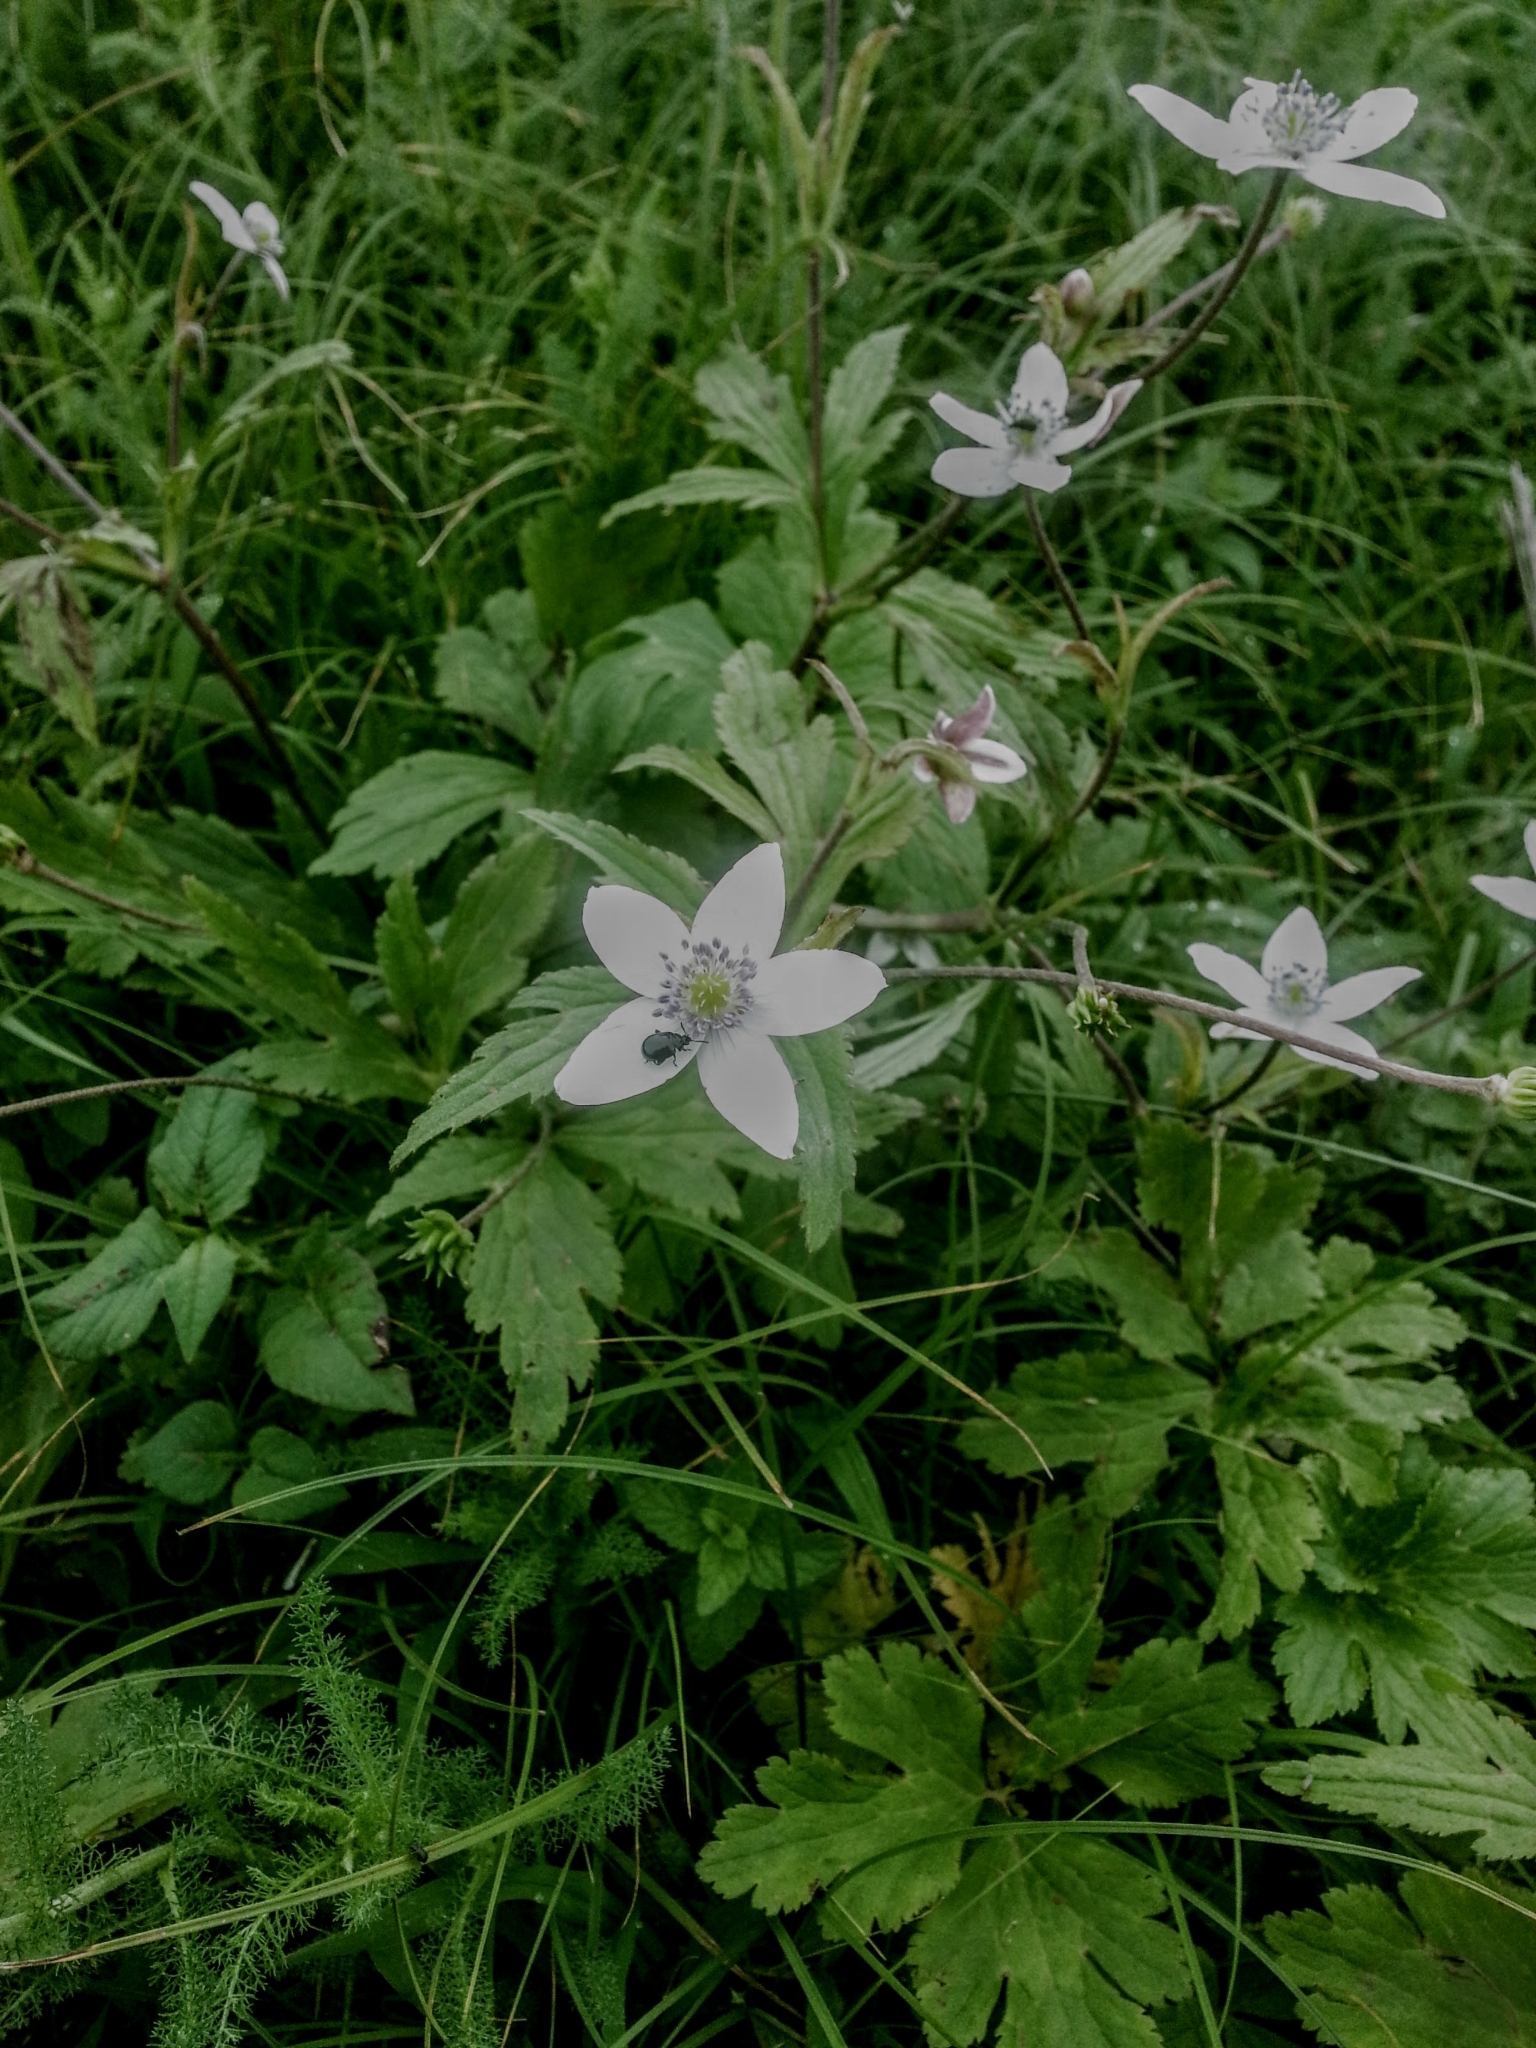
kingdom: Plantae
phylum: Tracheophyta
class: Magnoliopsida
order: Ranunculales
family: Ranunculaceae
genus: Eriocapitella
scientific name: Eriocapitella rivularis
